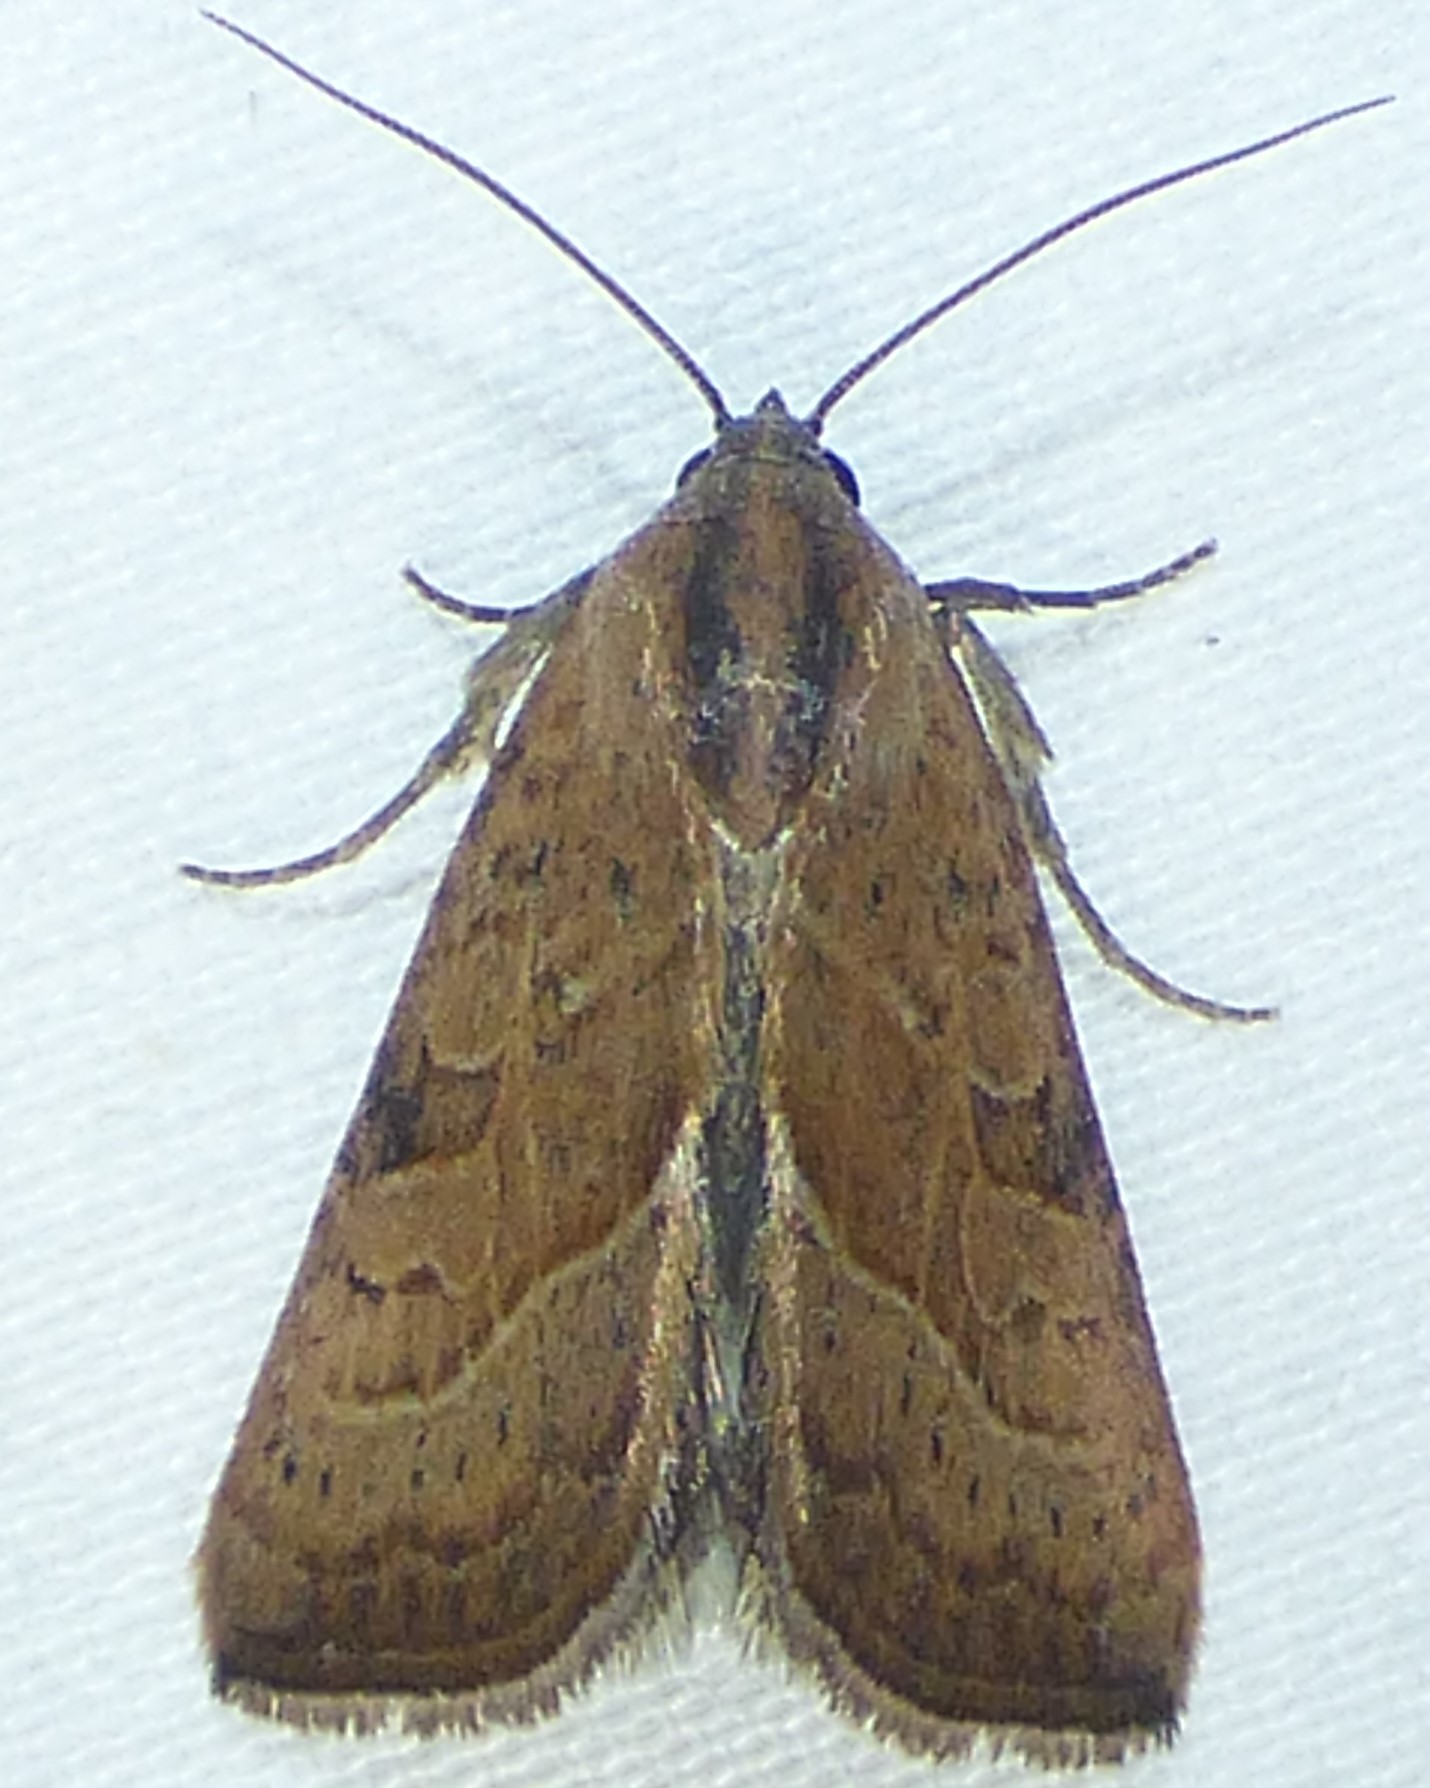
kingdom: Animalia
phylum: Arthropoda
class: Insecta
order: Lepidoptera
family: Noctuidae
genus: Galgula
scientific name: Galgula partita
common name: Wedgeling
